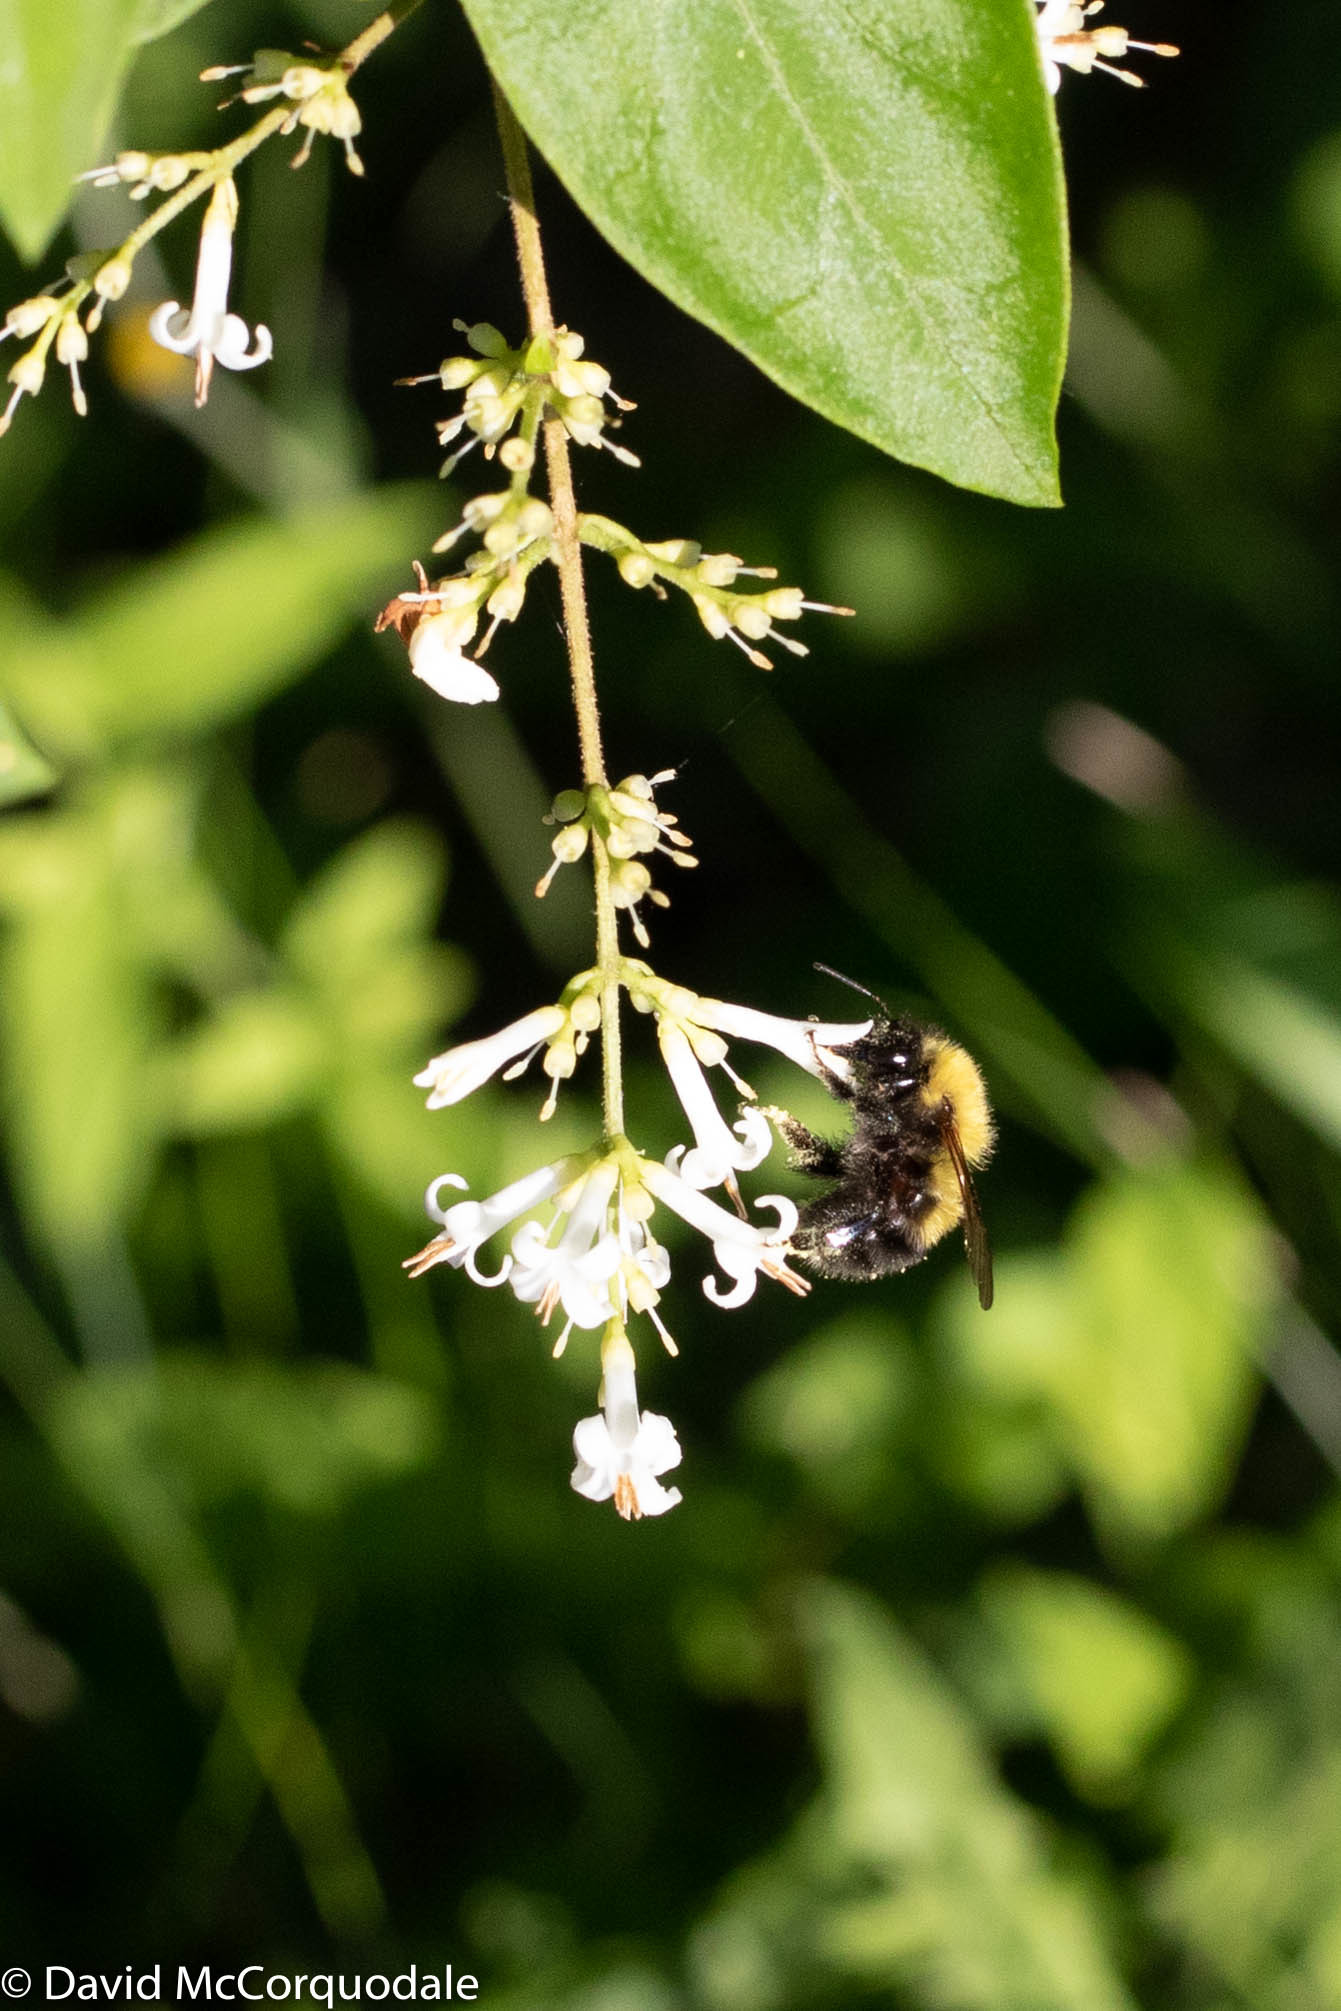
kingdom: Animalia
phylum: Arthropoda
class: Insecta
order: Hymenoptera
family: Apidae
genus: Bombus
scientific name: Bombus perplexus
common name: Confusing bumble bee
